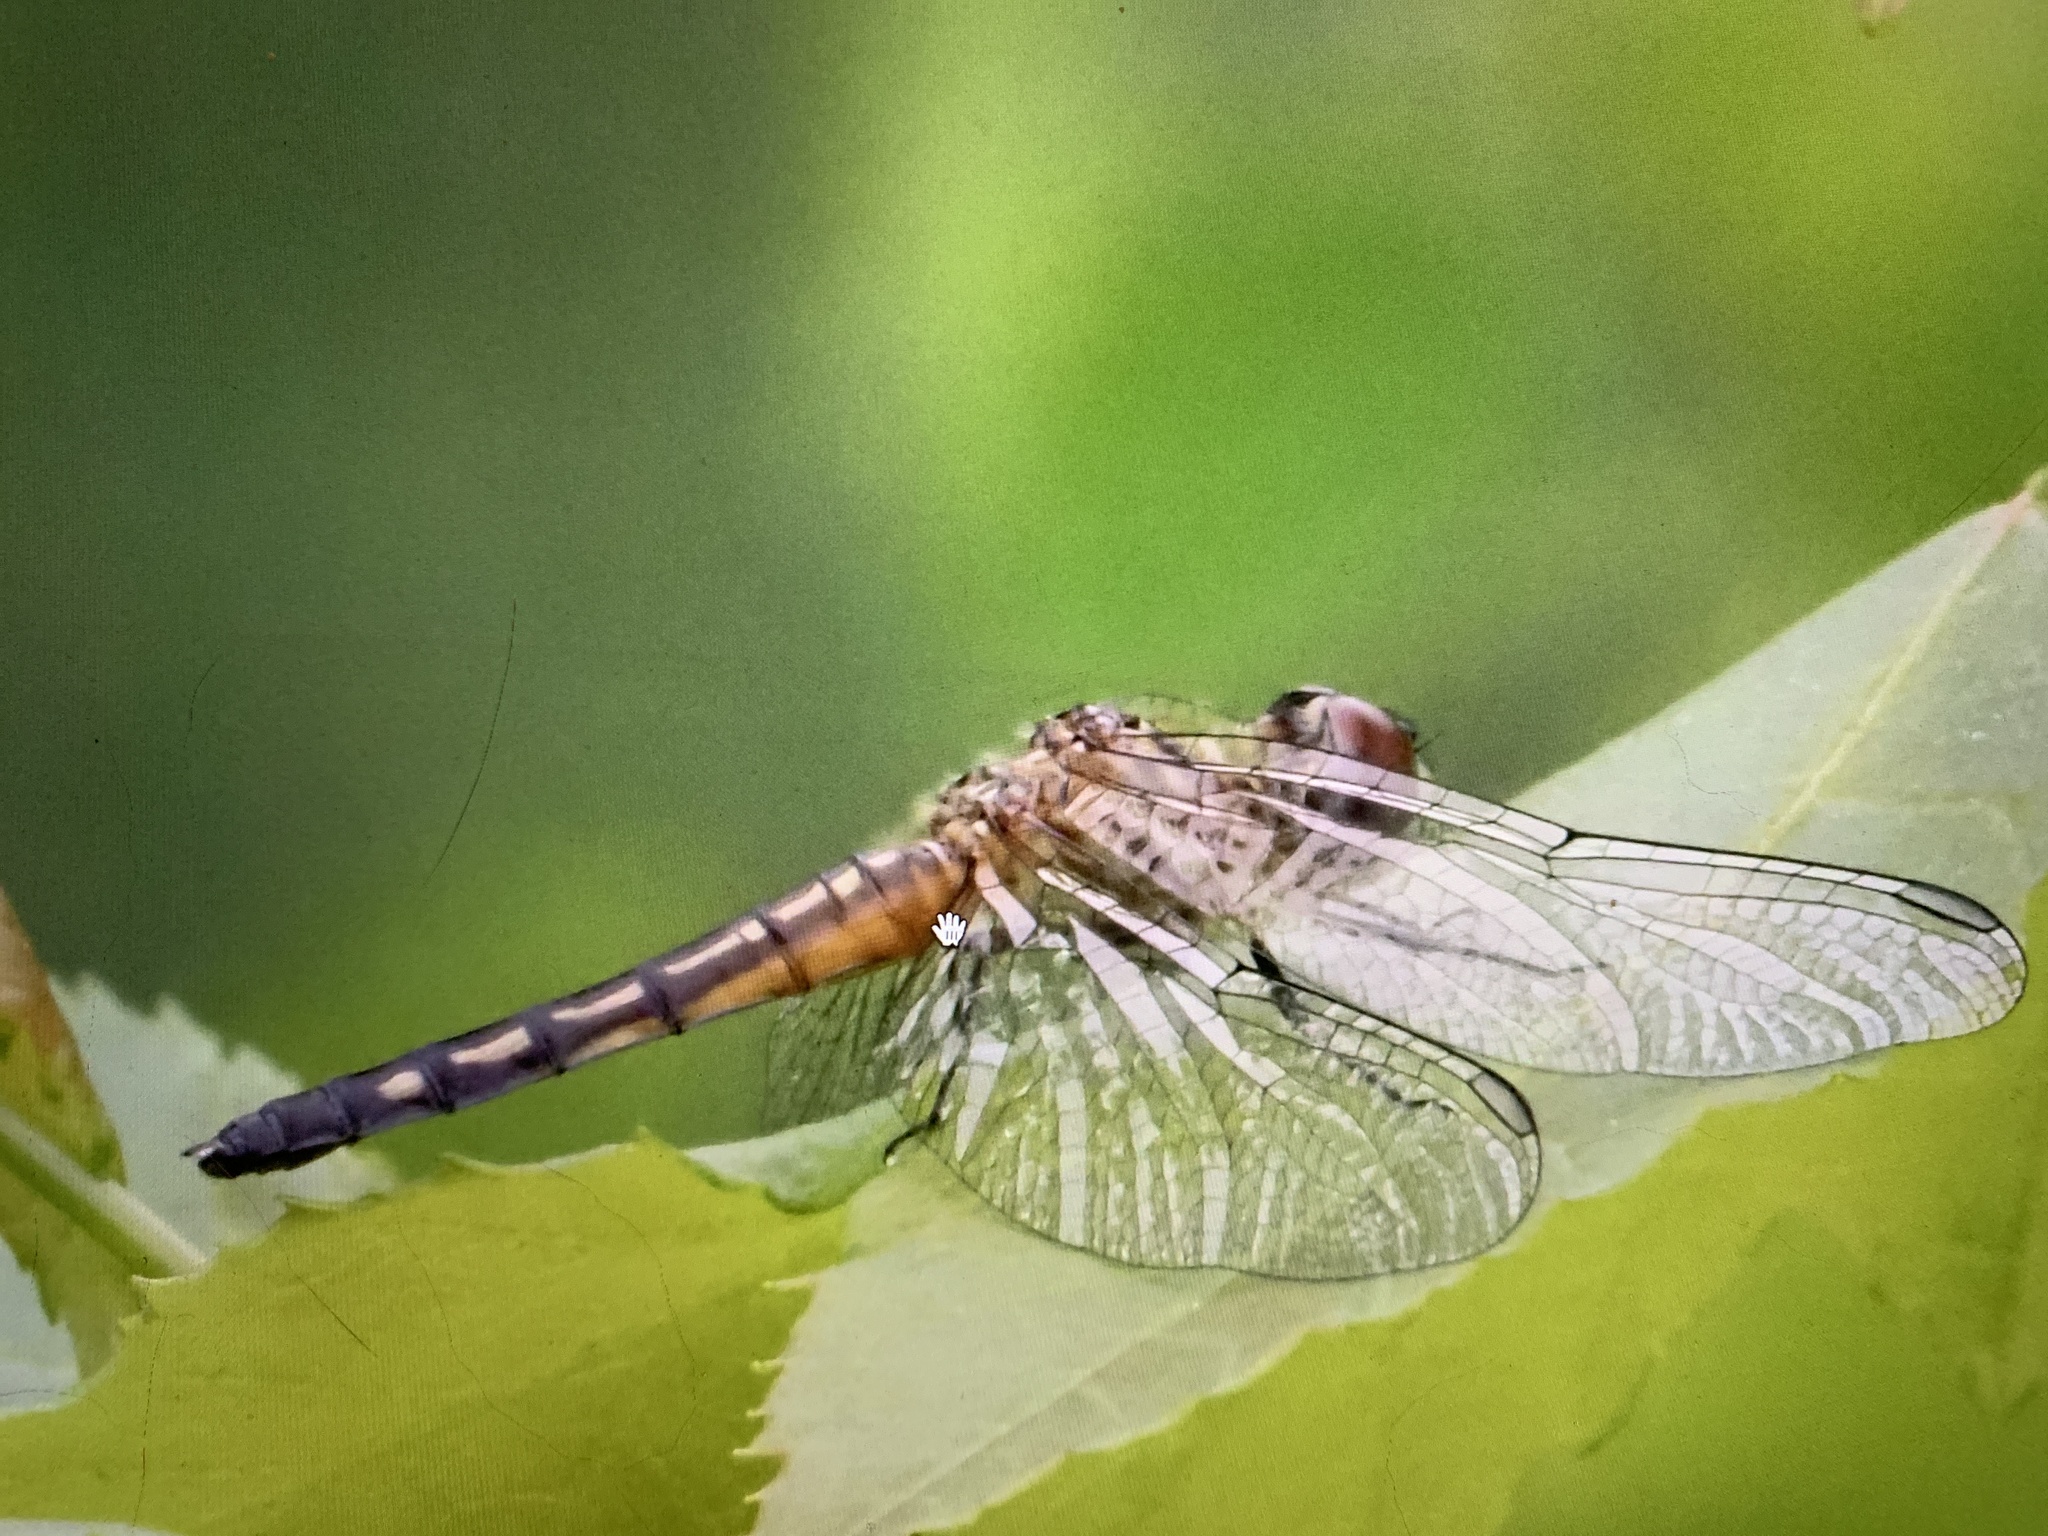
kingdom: Animalia
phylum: Arthropoda
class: Insecta
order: Odonata
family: Libellulidae
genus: Pachydiplax
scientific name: Pachydiplax longipennis
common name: Blue dasher
